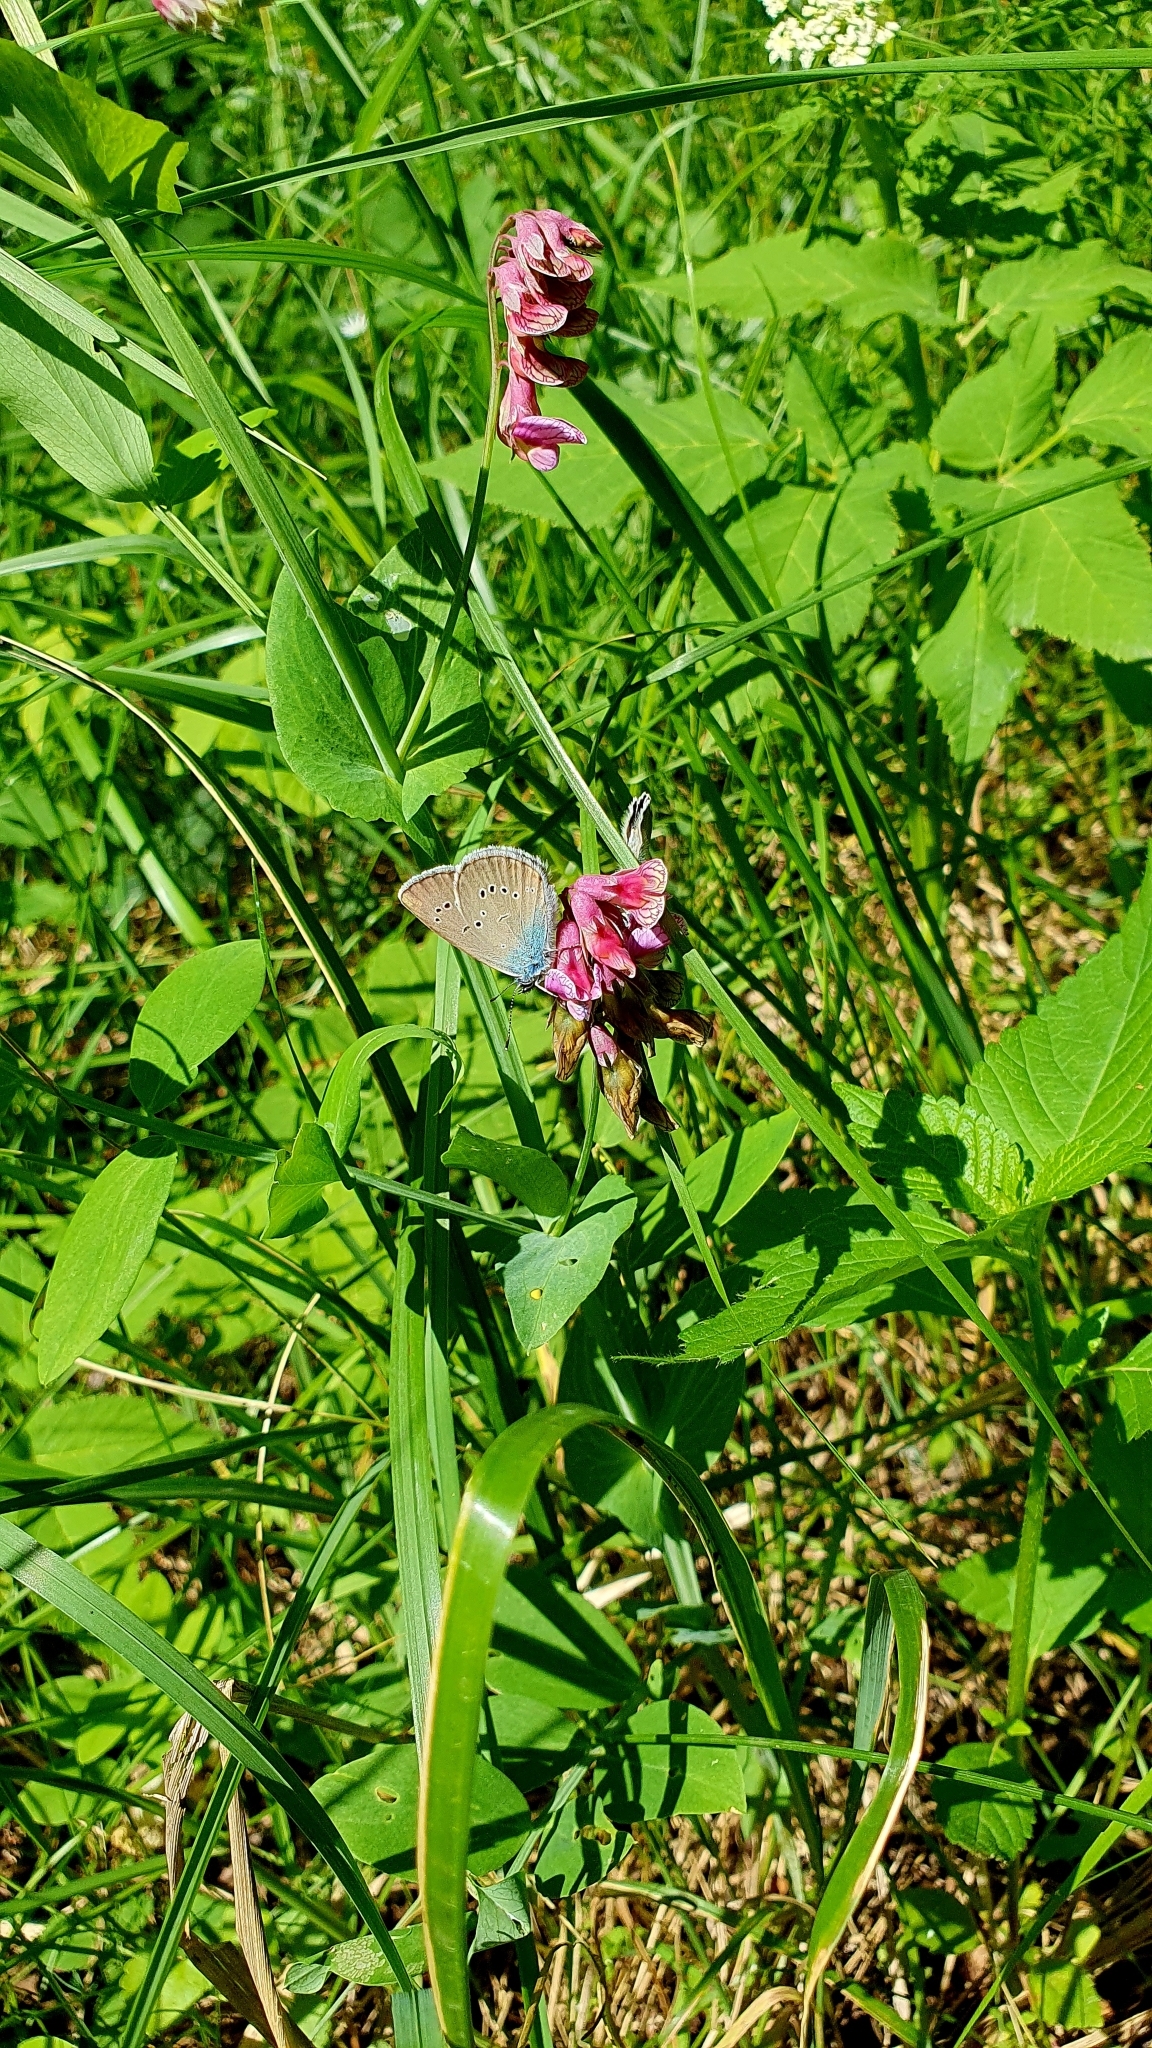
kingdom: Plantae
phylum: Tracheophyta
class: Magnoliopsida
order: Fabales
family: Fabaceae
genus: Lathyrus
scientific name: Lathyrus pisiformis
